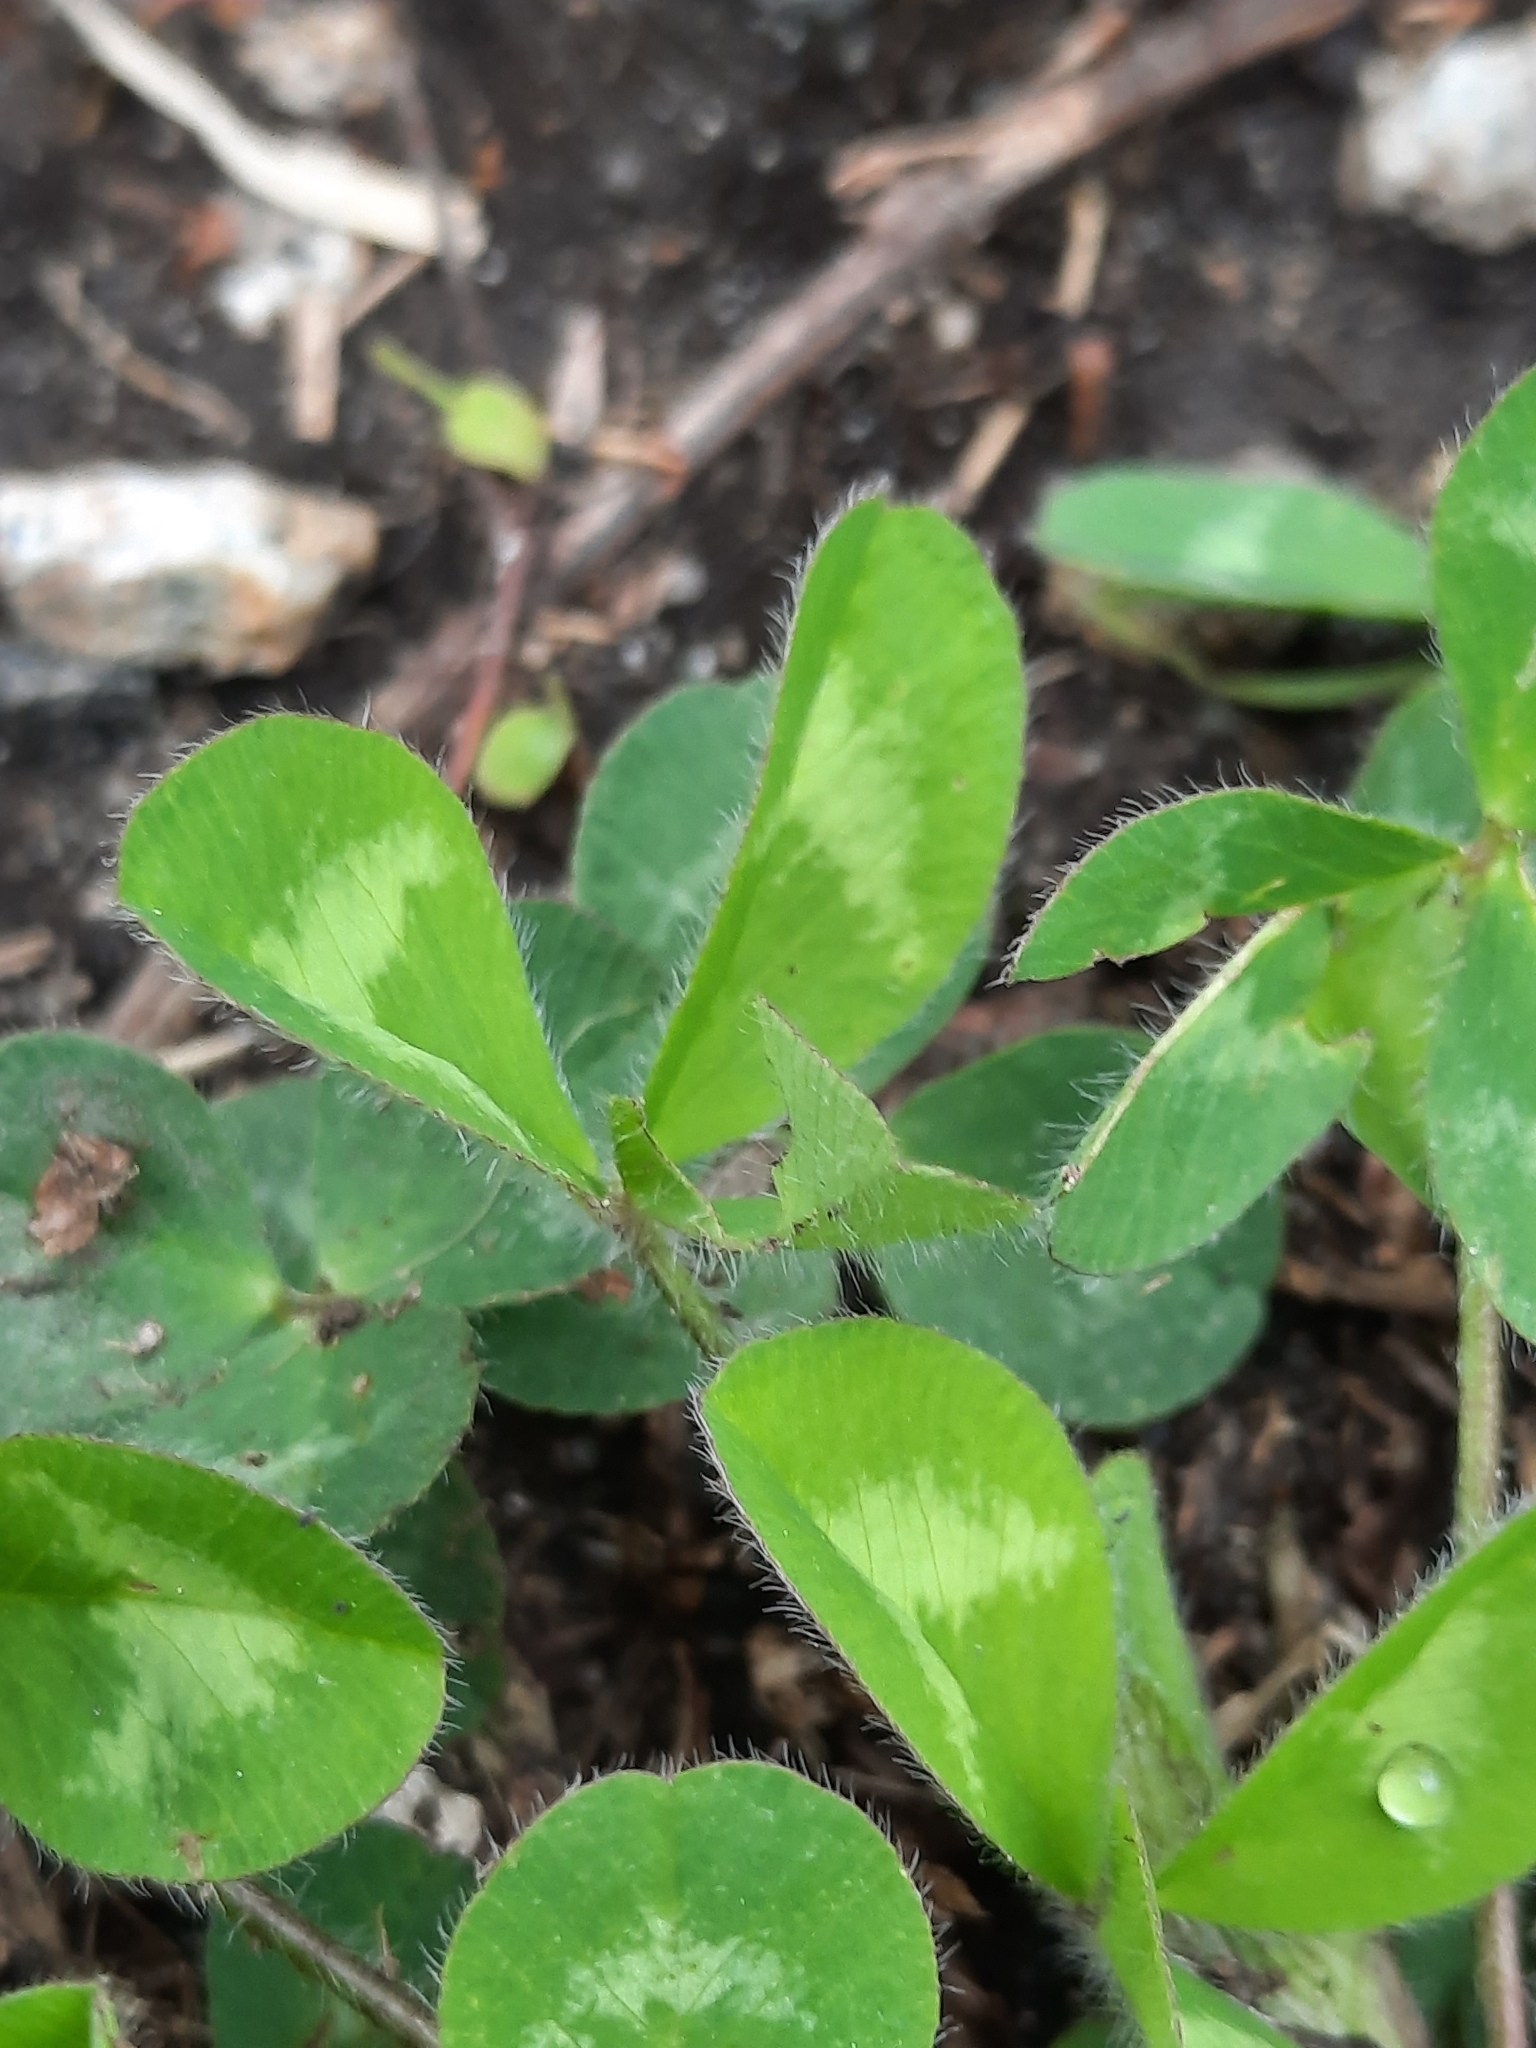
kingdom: Plantae
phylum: Tracheophyta
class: Magnoliopsida
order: Fabales
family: Fabaceae
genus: Trifolium
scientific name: Trifolium pratense
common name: Red clover
